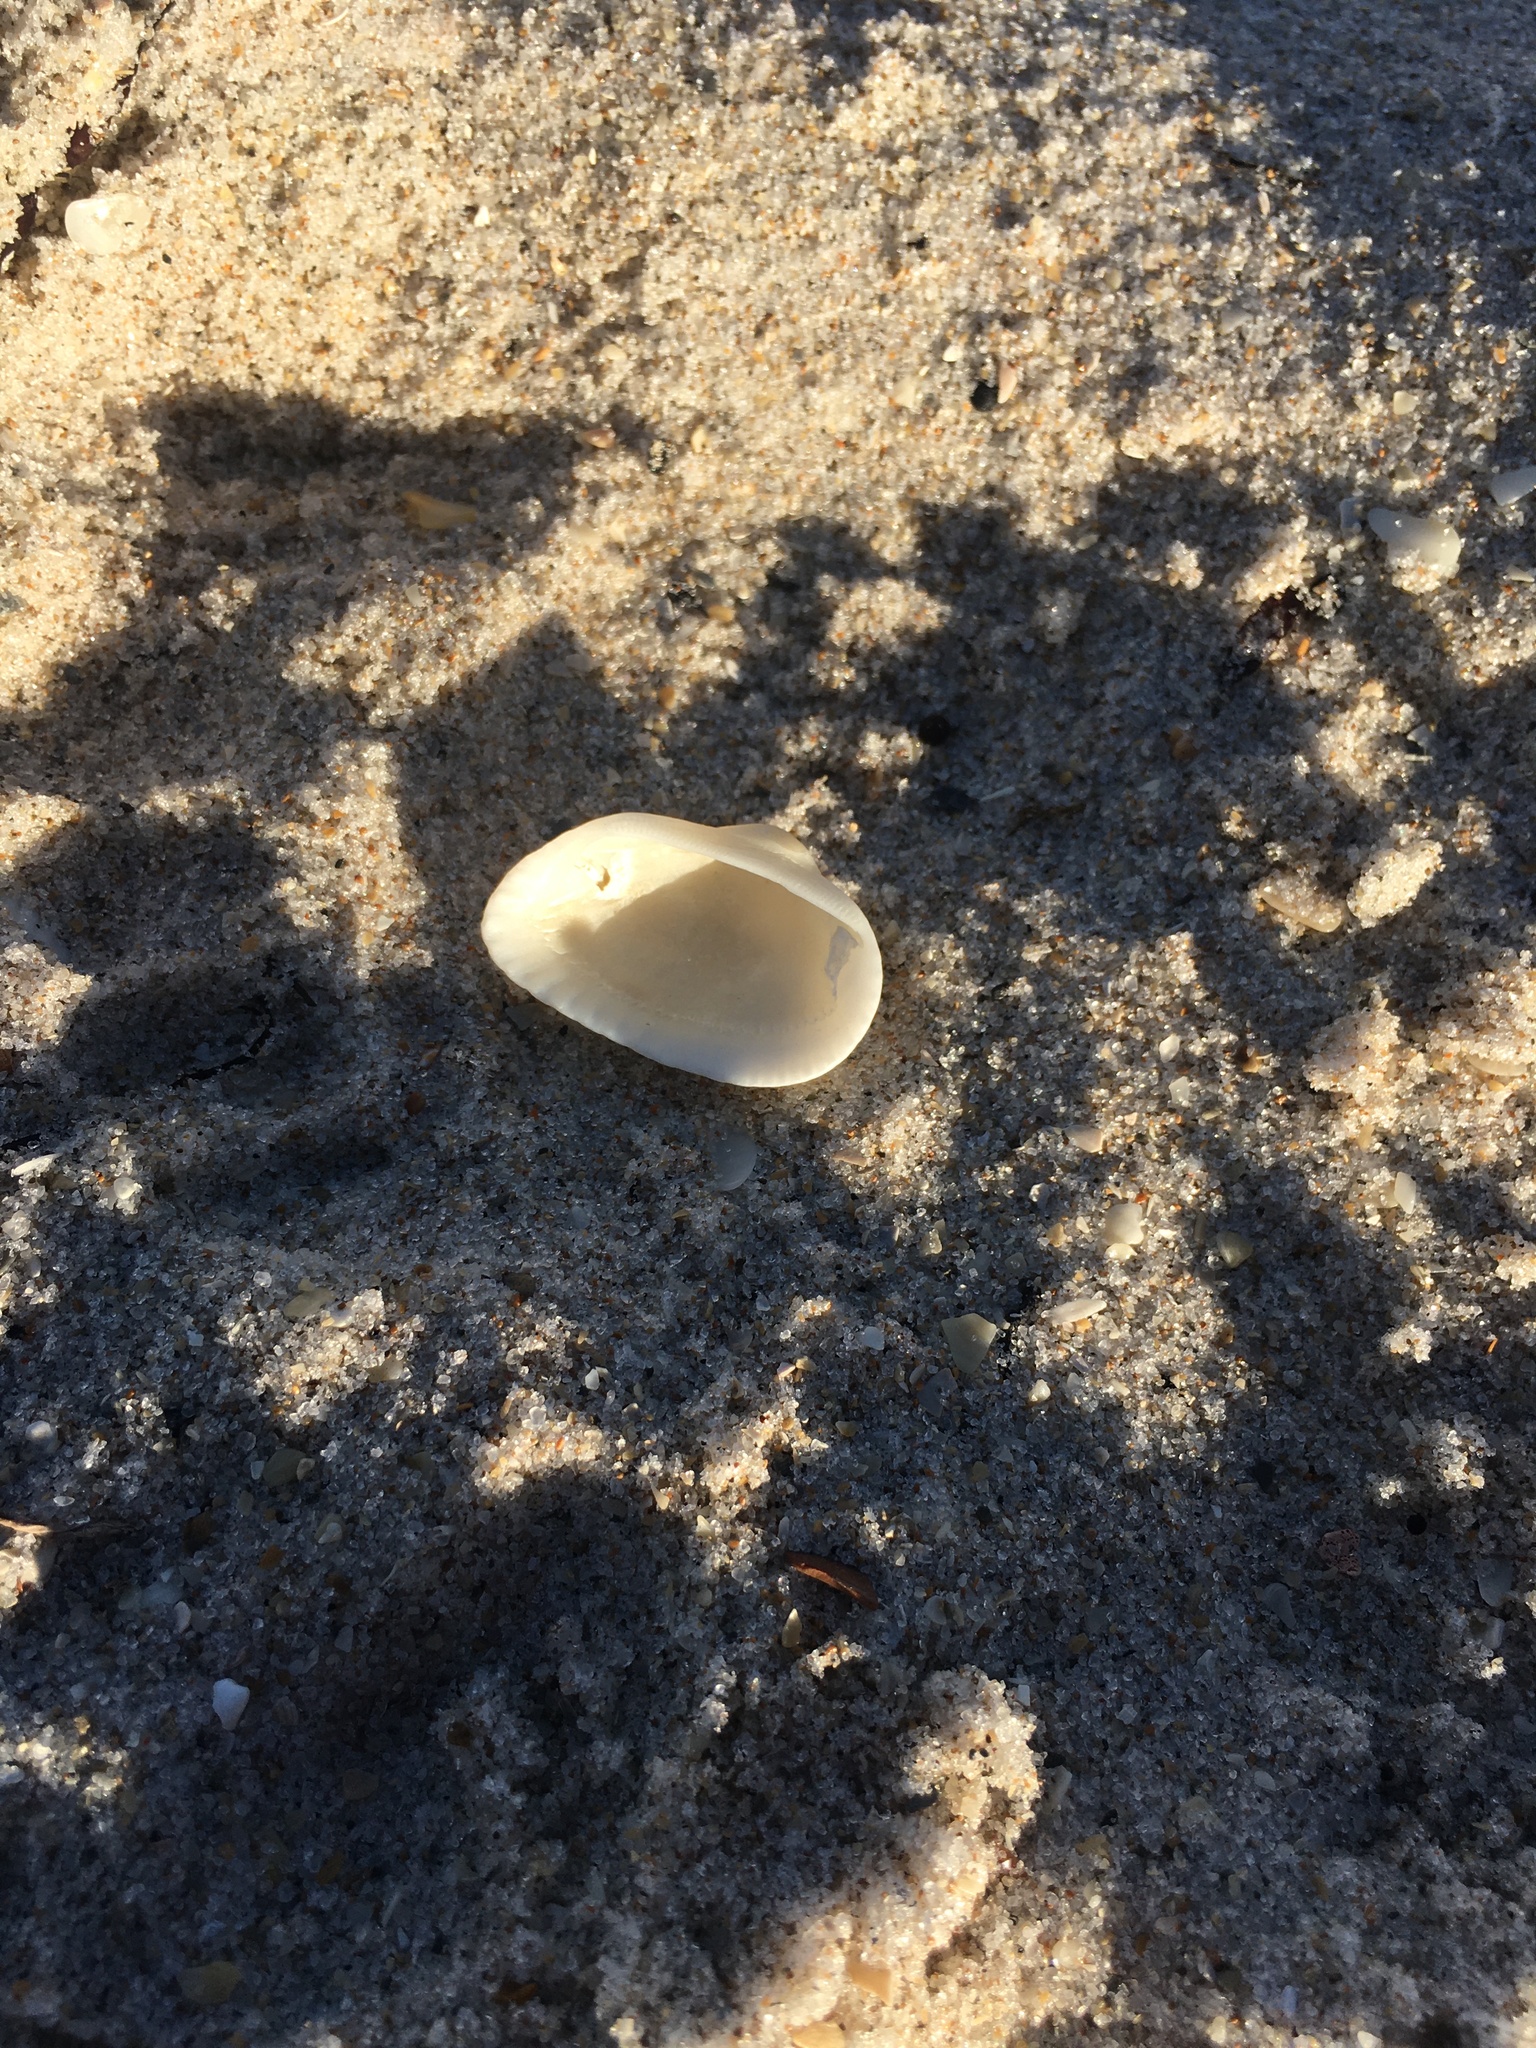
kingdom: Animalia
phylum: Mollusca
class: Bivalvia
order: Arcida
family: Noetiidae
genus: Noetia
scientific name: Noetia ponderosa
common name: Ponderous ark
